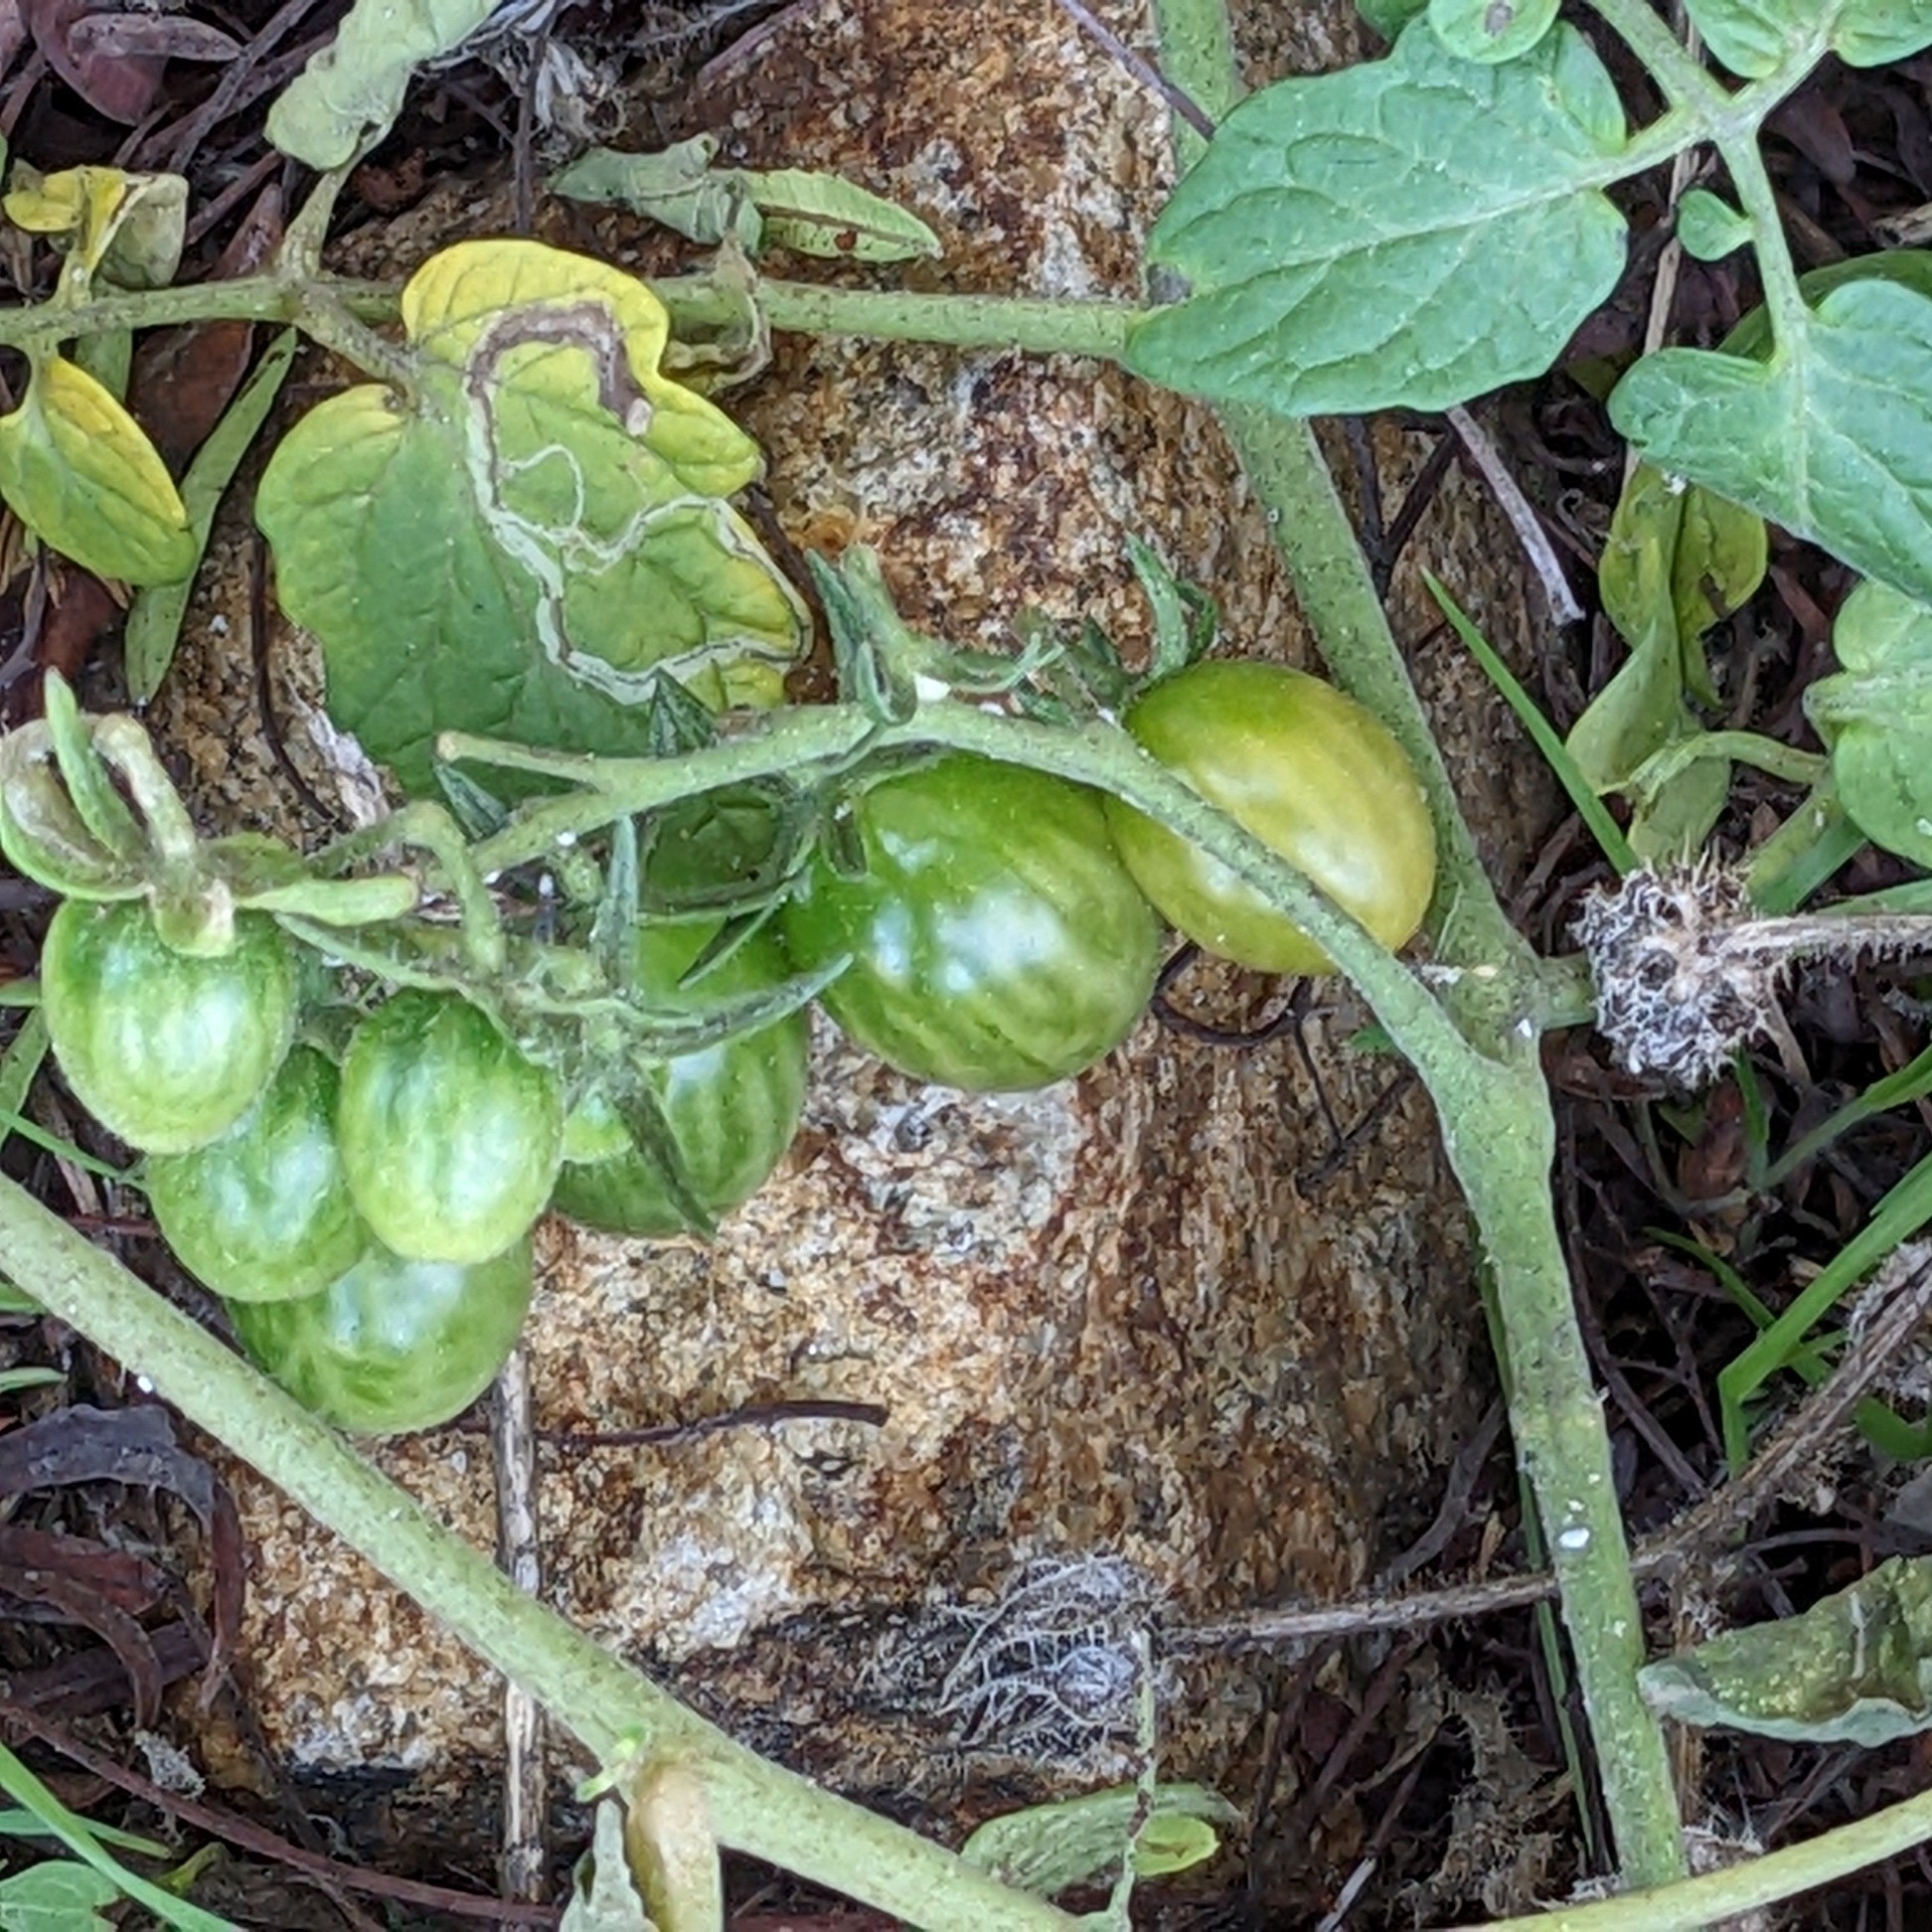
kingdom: Plantae
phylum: Tracheophyta
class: Magnoliopsida
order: Solanales
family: Solanaceae
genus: Solanum
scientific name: Solanum lycopersicum
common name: Garden tomato
